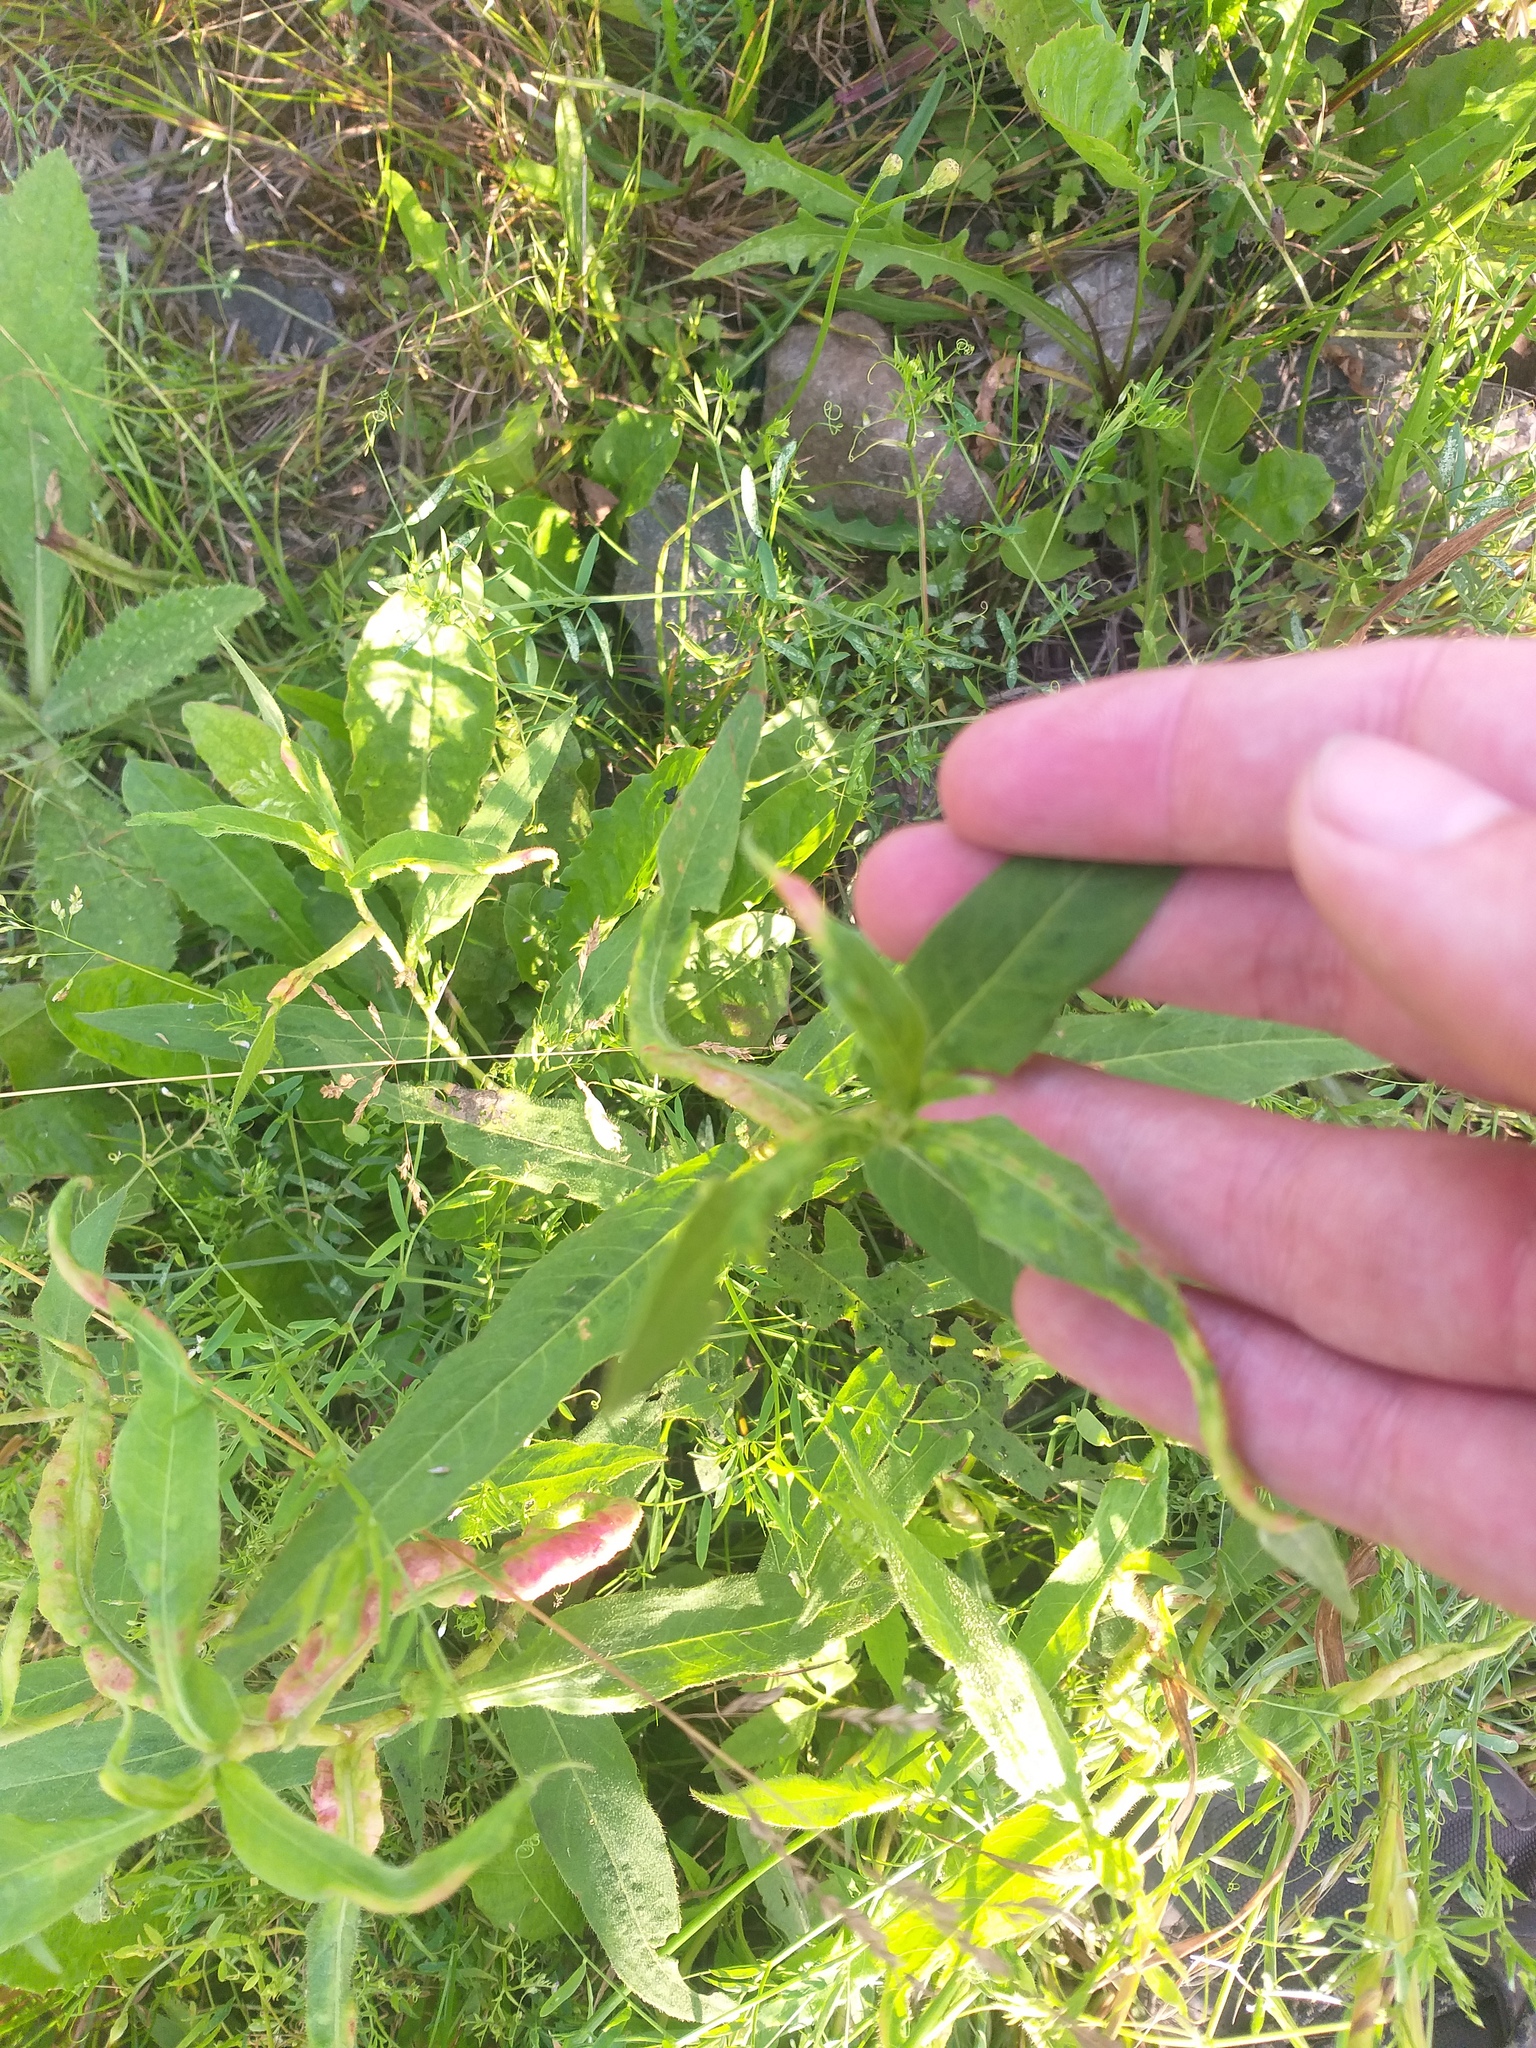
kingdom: Plantae
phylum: Tracheophyta
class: Magnoliopsida
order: Caryophyllales
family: Polygonaceae
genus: Persicaria
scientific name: Persicaria amphibia
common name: Amphibious bistort
